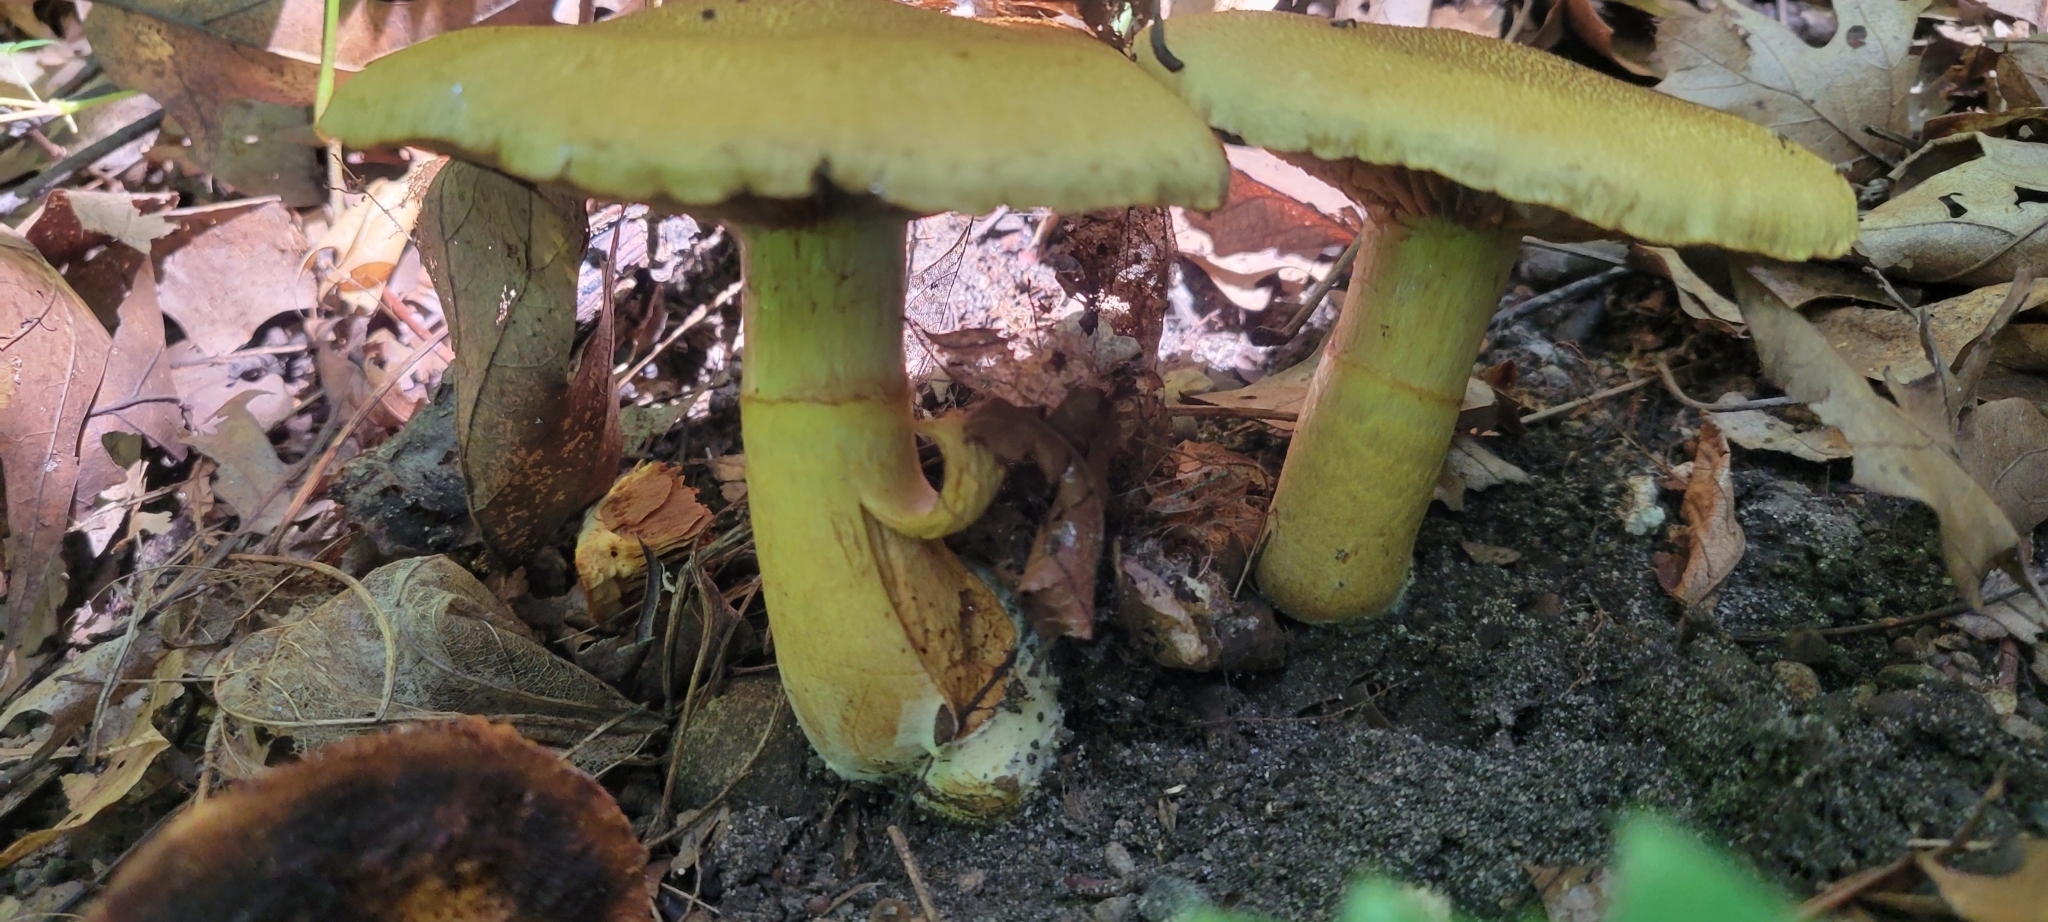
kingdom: Fungi
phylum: Basidiomycota
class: Agaricomycetes
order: Agaricales
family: Hymenogastraceae
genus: Gymnopilus
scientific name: Gymnopilus sapineus
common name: Scaly rustgill
